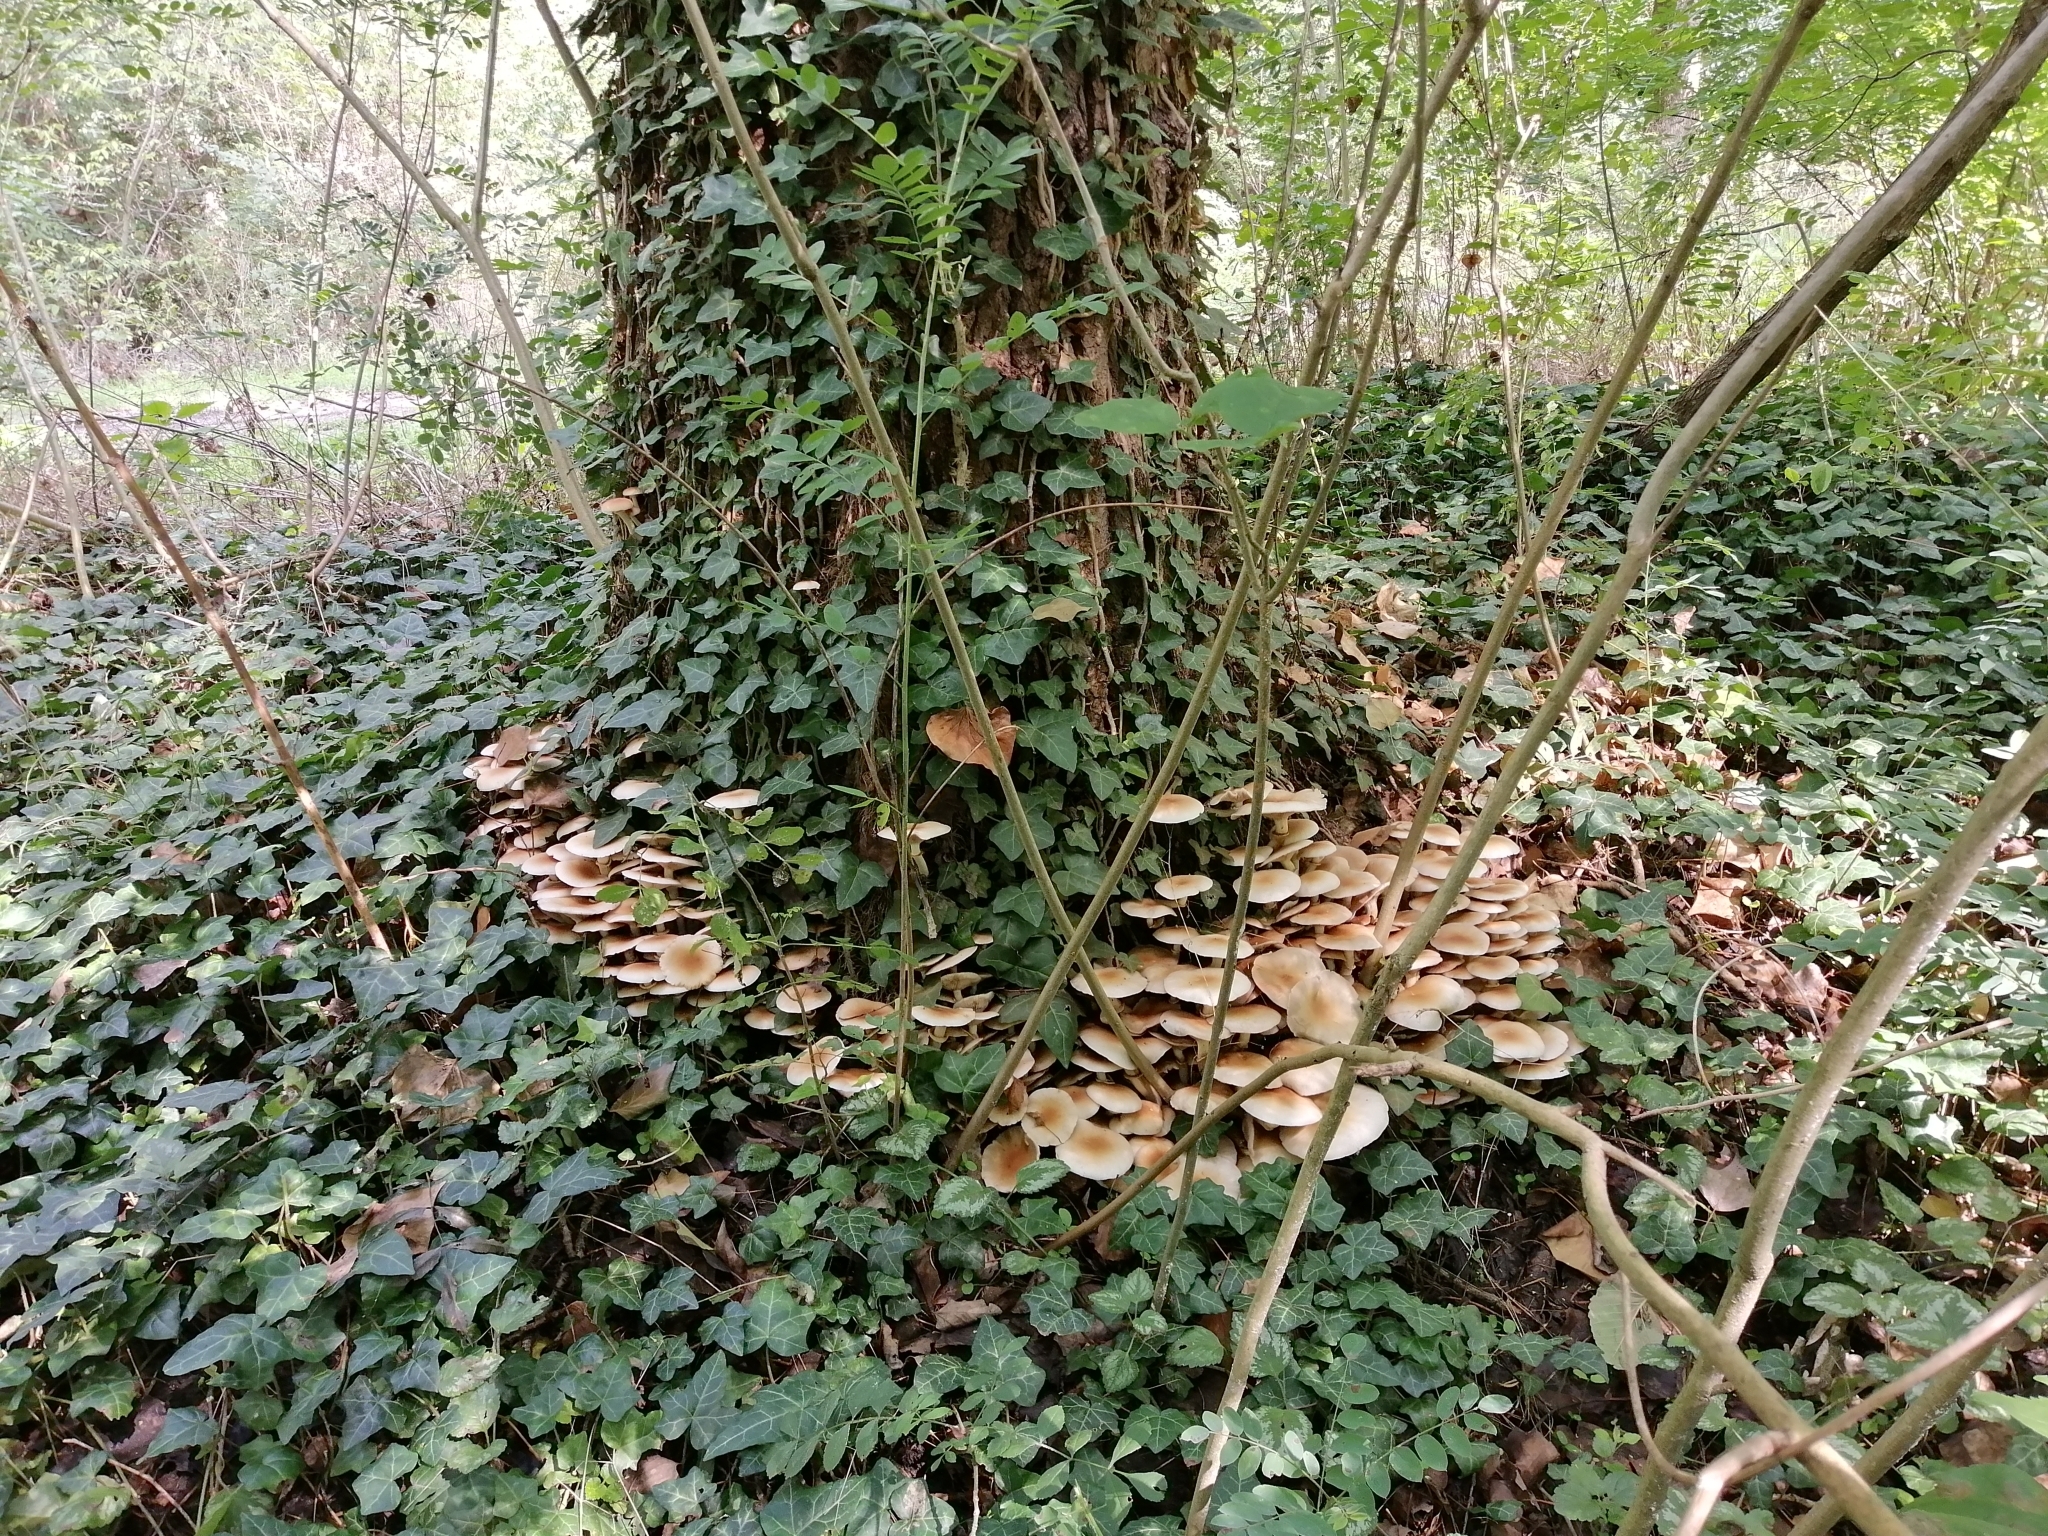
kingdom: Fungi
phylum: Basidiomycota
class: Agaricomycetes
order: Agaricales
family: Tubariaceae
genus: Cyclocybe
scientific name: Cyclocybe cylindracea
